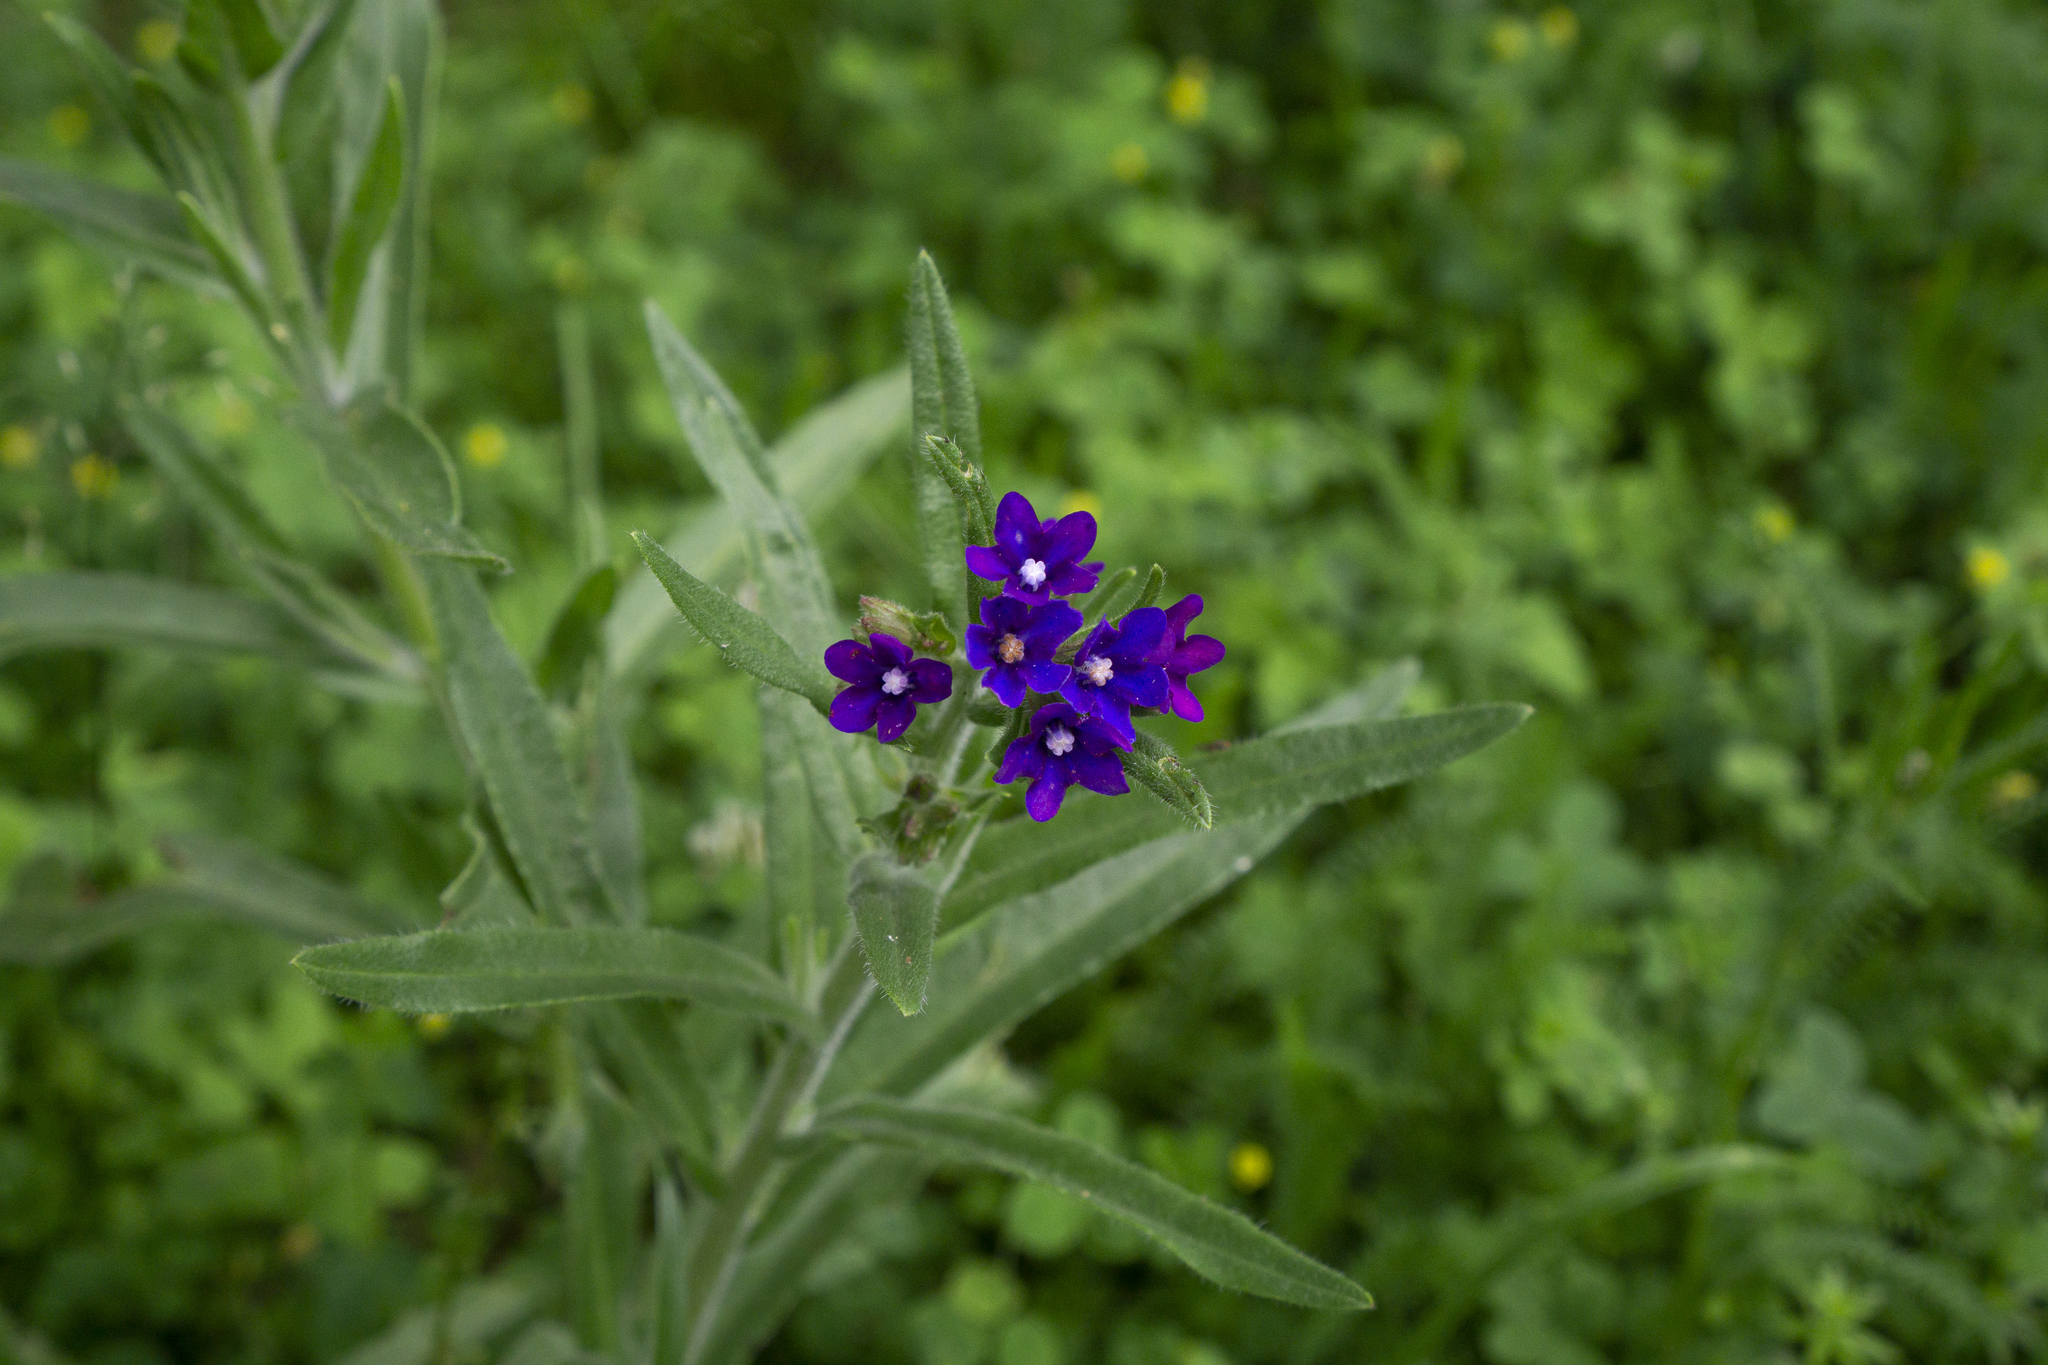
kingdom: Plantae
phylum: Tracheophyta
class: Magnoliopsida
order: Boraginales
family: Boraginaceae
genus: Anchusa
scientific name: Anchusa officinalis
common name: Alkanet
